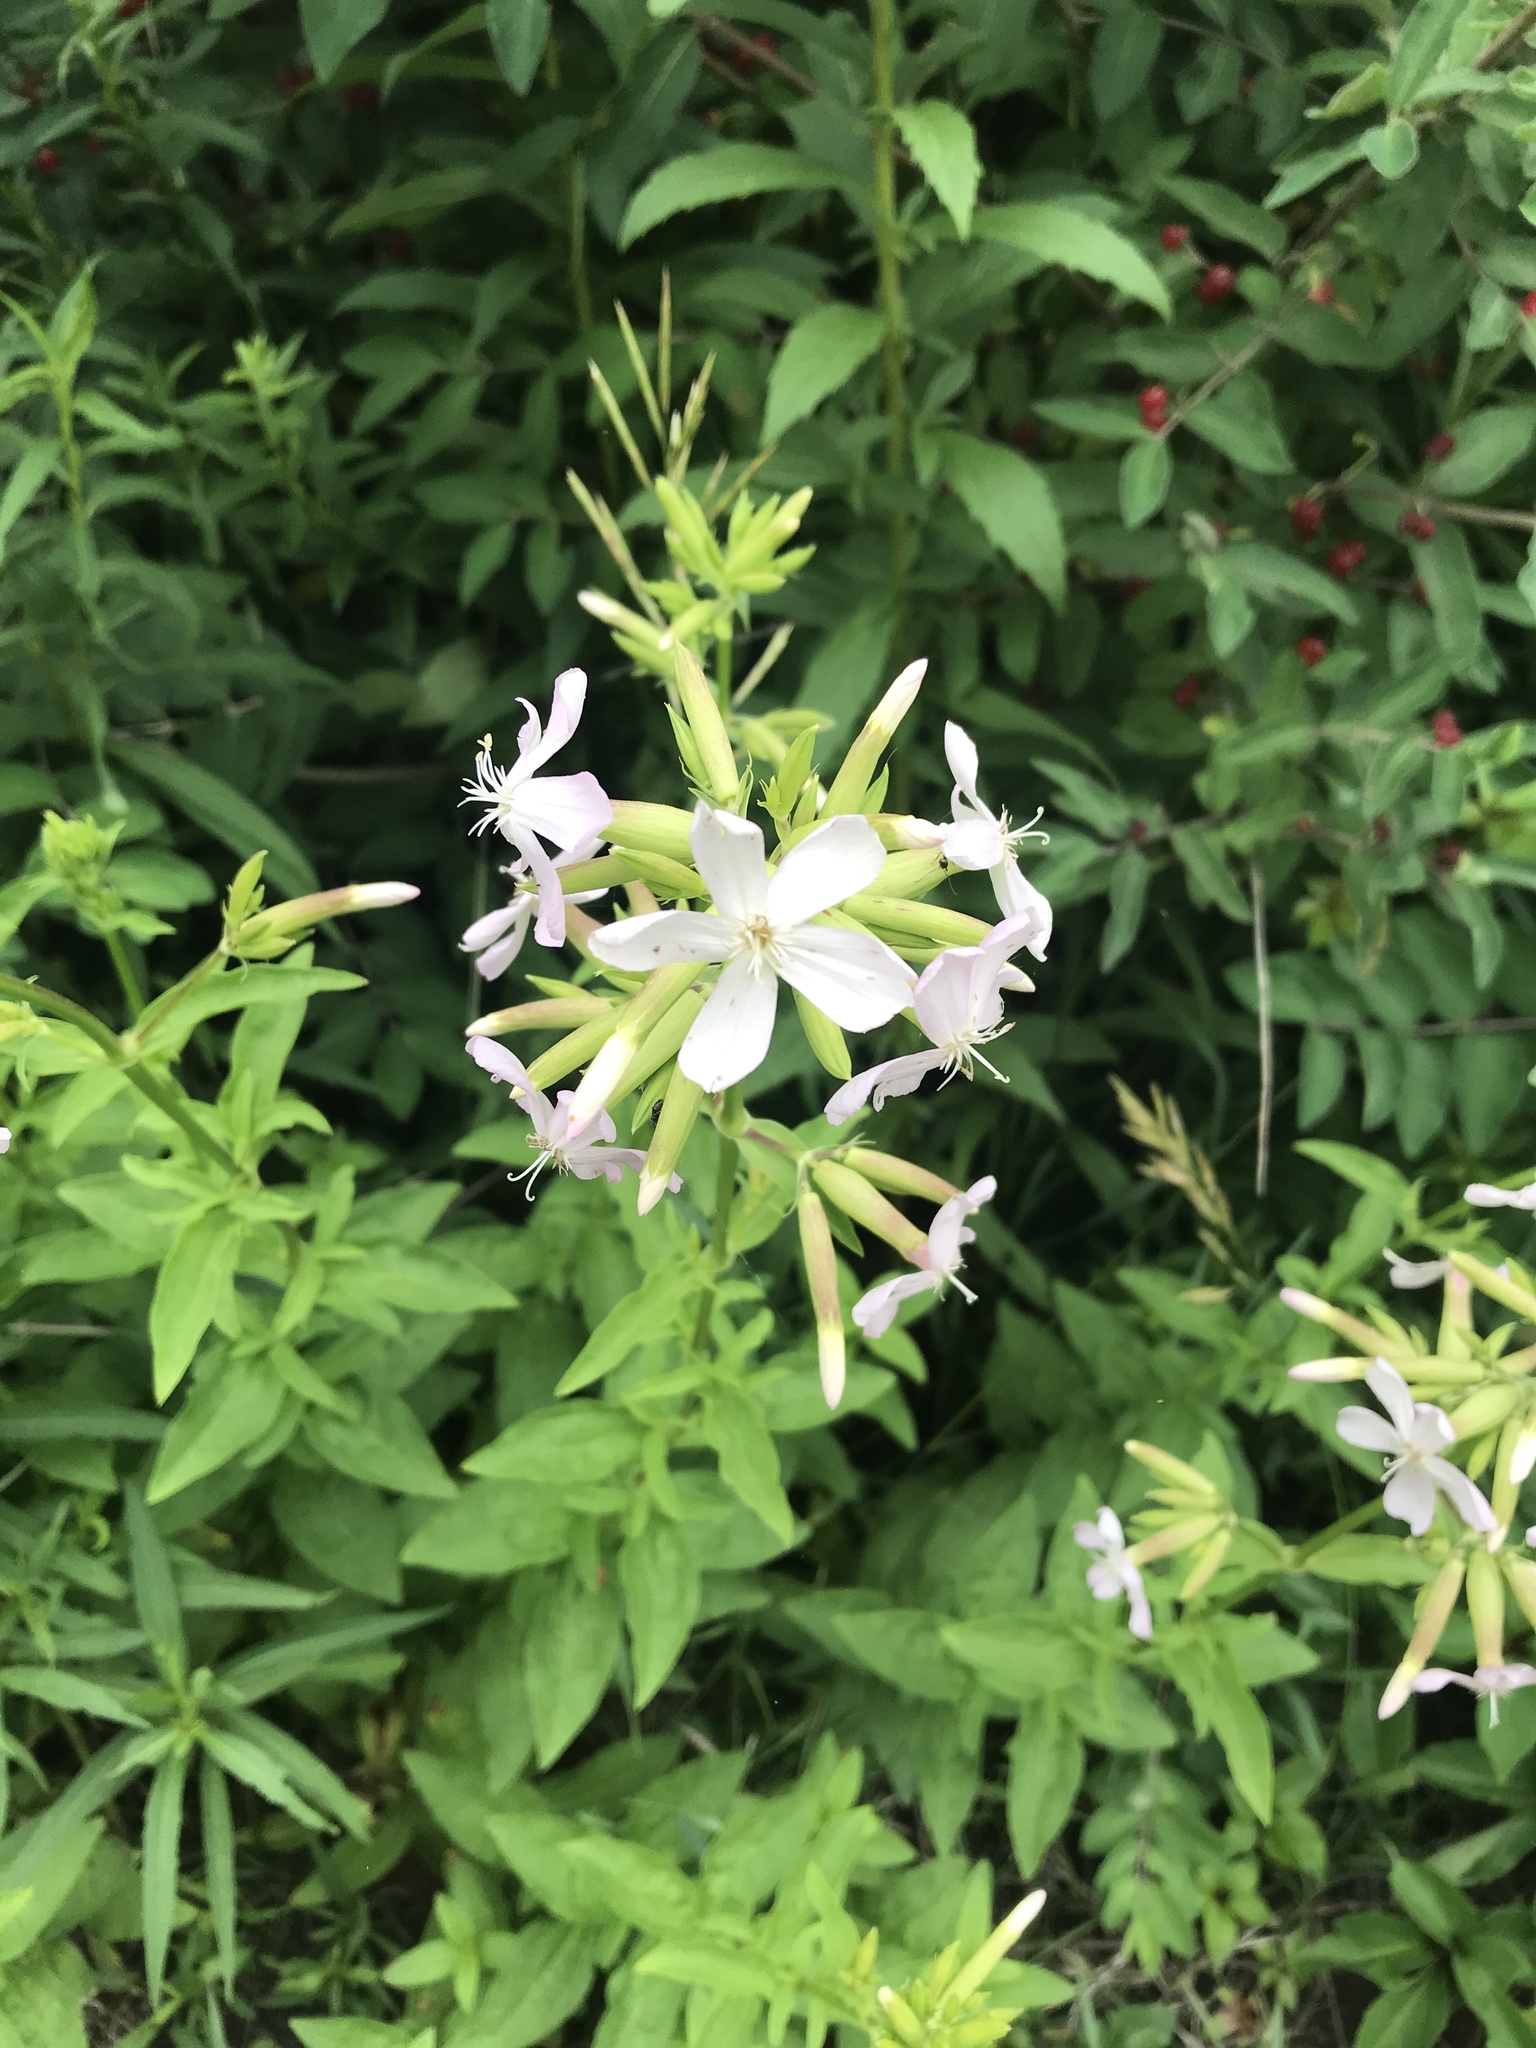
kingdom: Plantae
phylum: Tracheophyta
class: Magnoliopsida
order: Caryophyllales
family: Caryophyllaceae
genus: Saponaria
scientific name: Saponaria officinalis
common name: Soapwort
